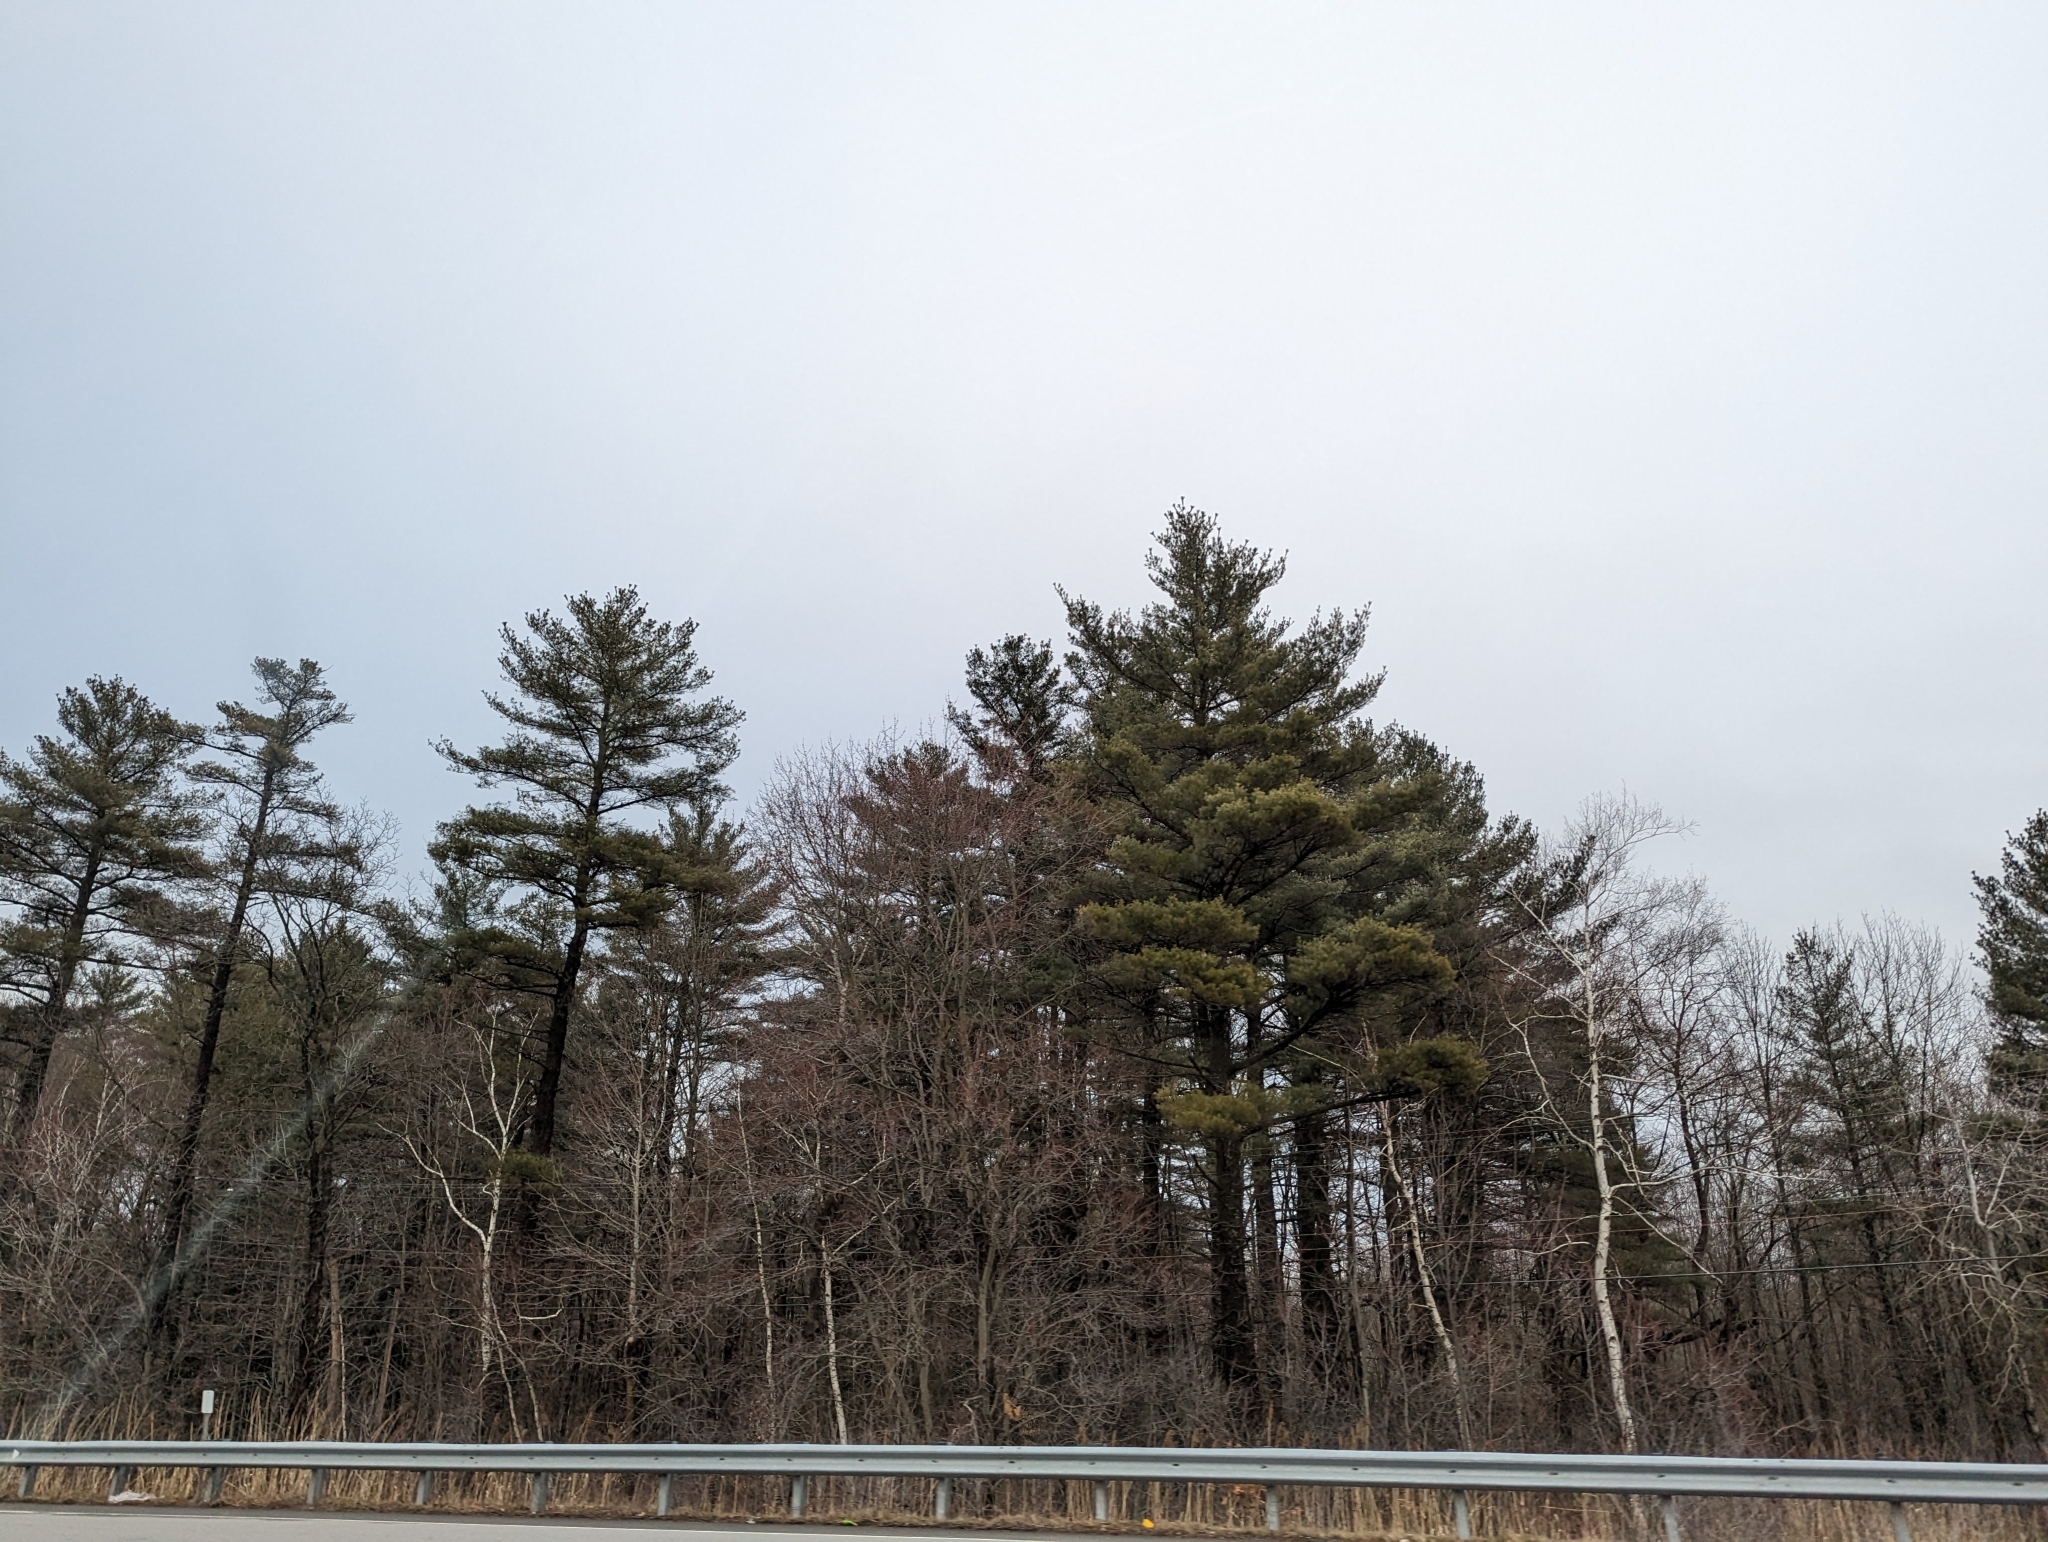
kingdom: Plantae
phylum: Tracheophyta
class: Pinopsida
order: Pinales
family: Pinaceae
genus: Pinus
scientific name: Pinus strobus
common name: Weymouth pine
